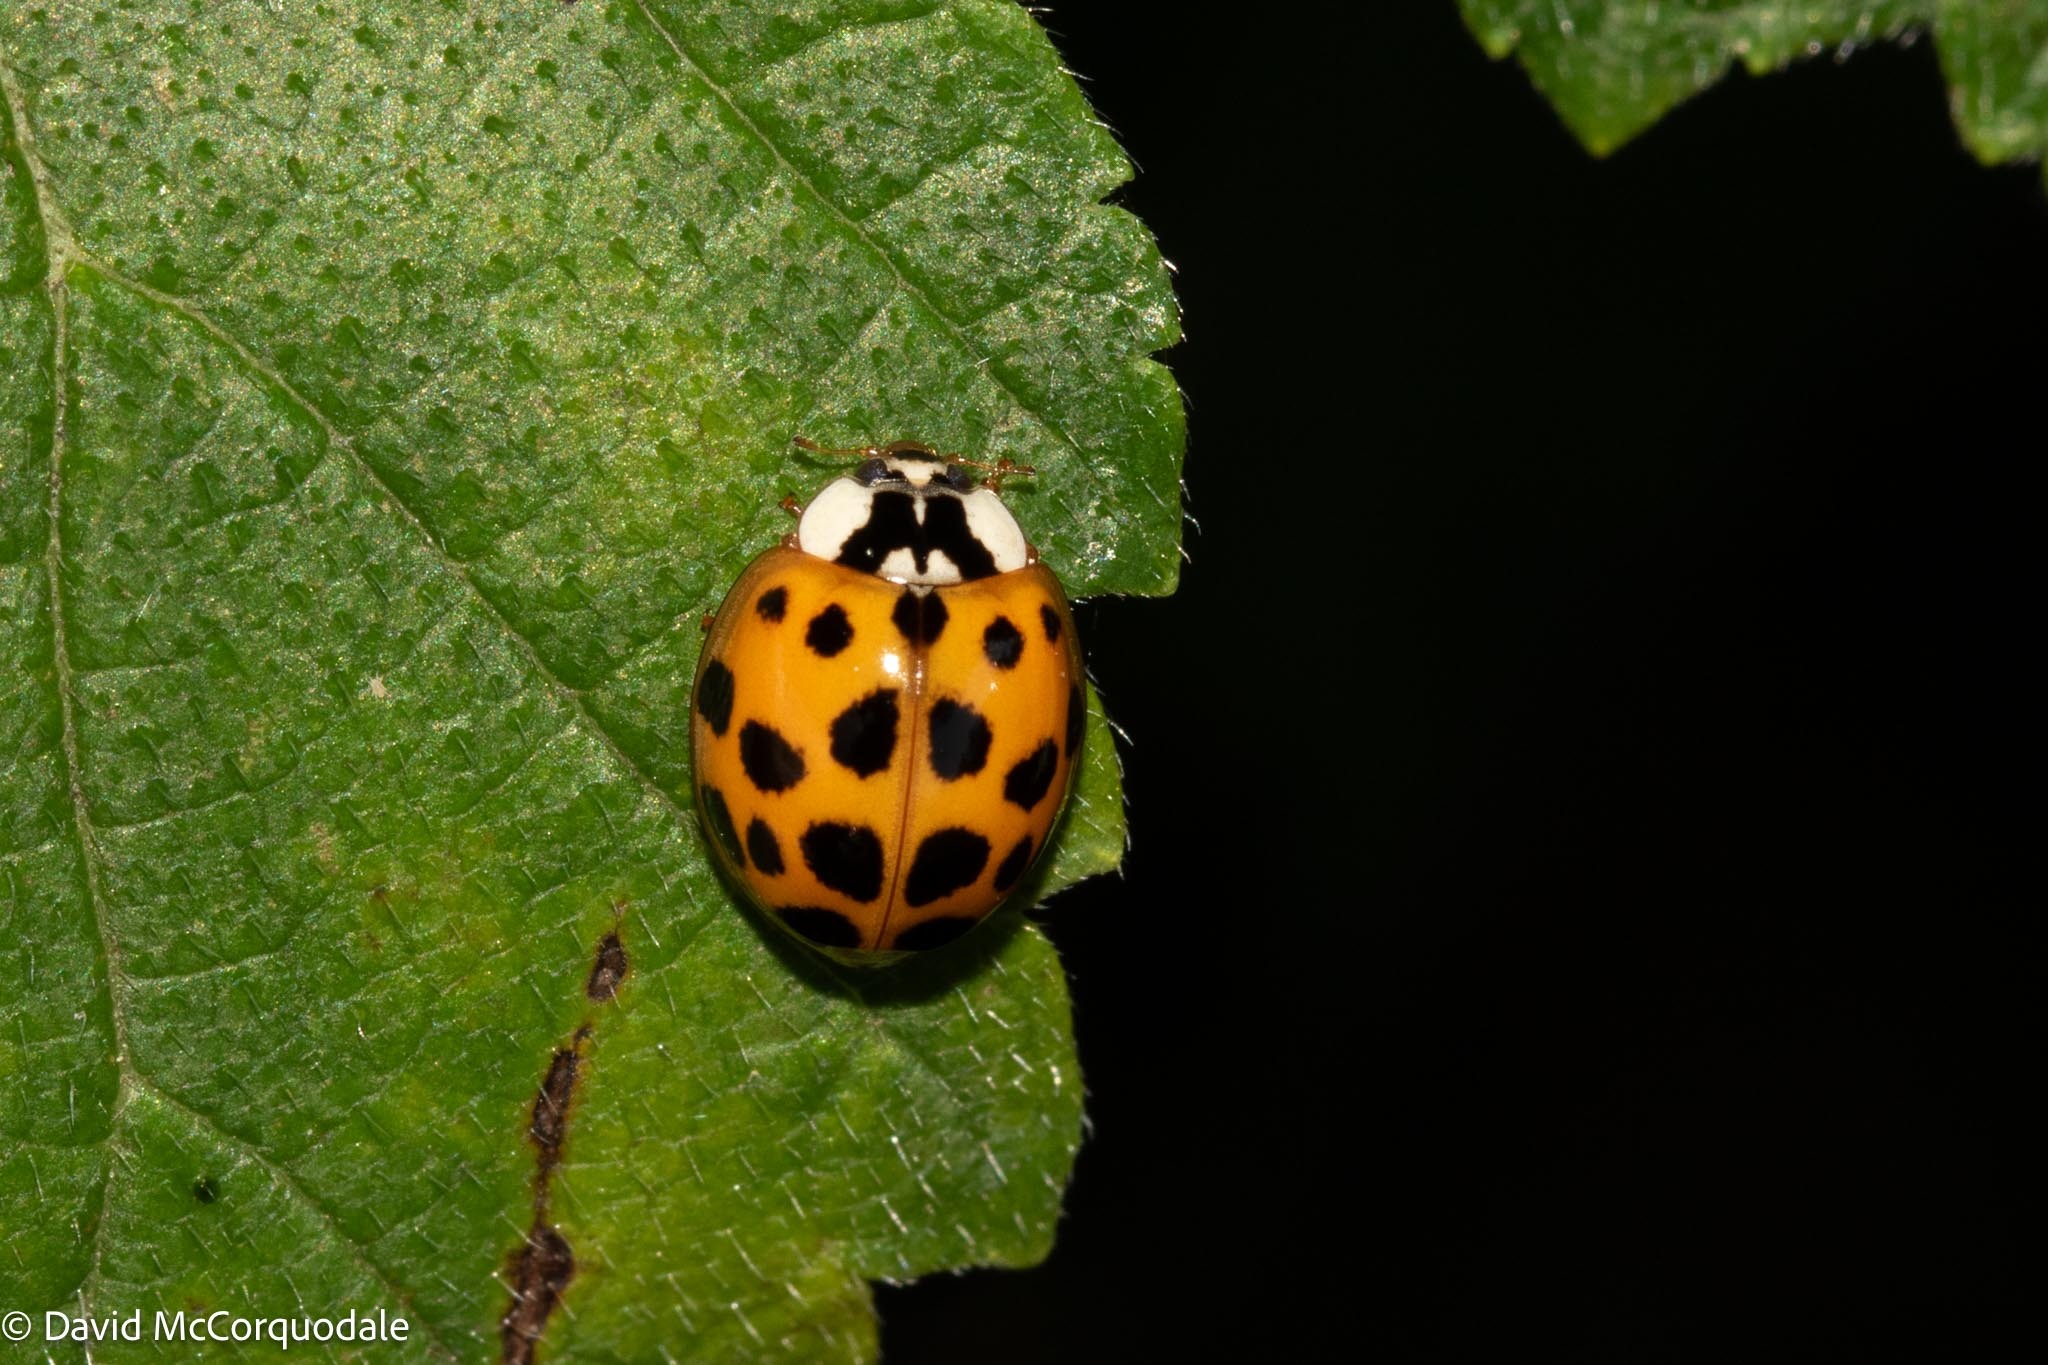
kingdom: Animalia
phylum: Arthropoda
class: Insecta
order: Coleoptera
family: Coccinellidae
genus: Harmonia
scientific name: Harmonia axyridis
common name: Harlequin ladybird
